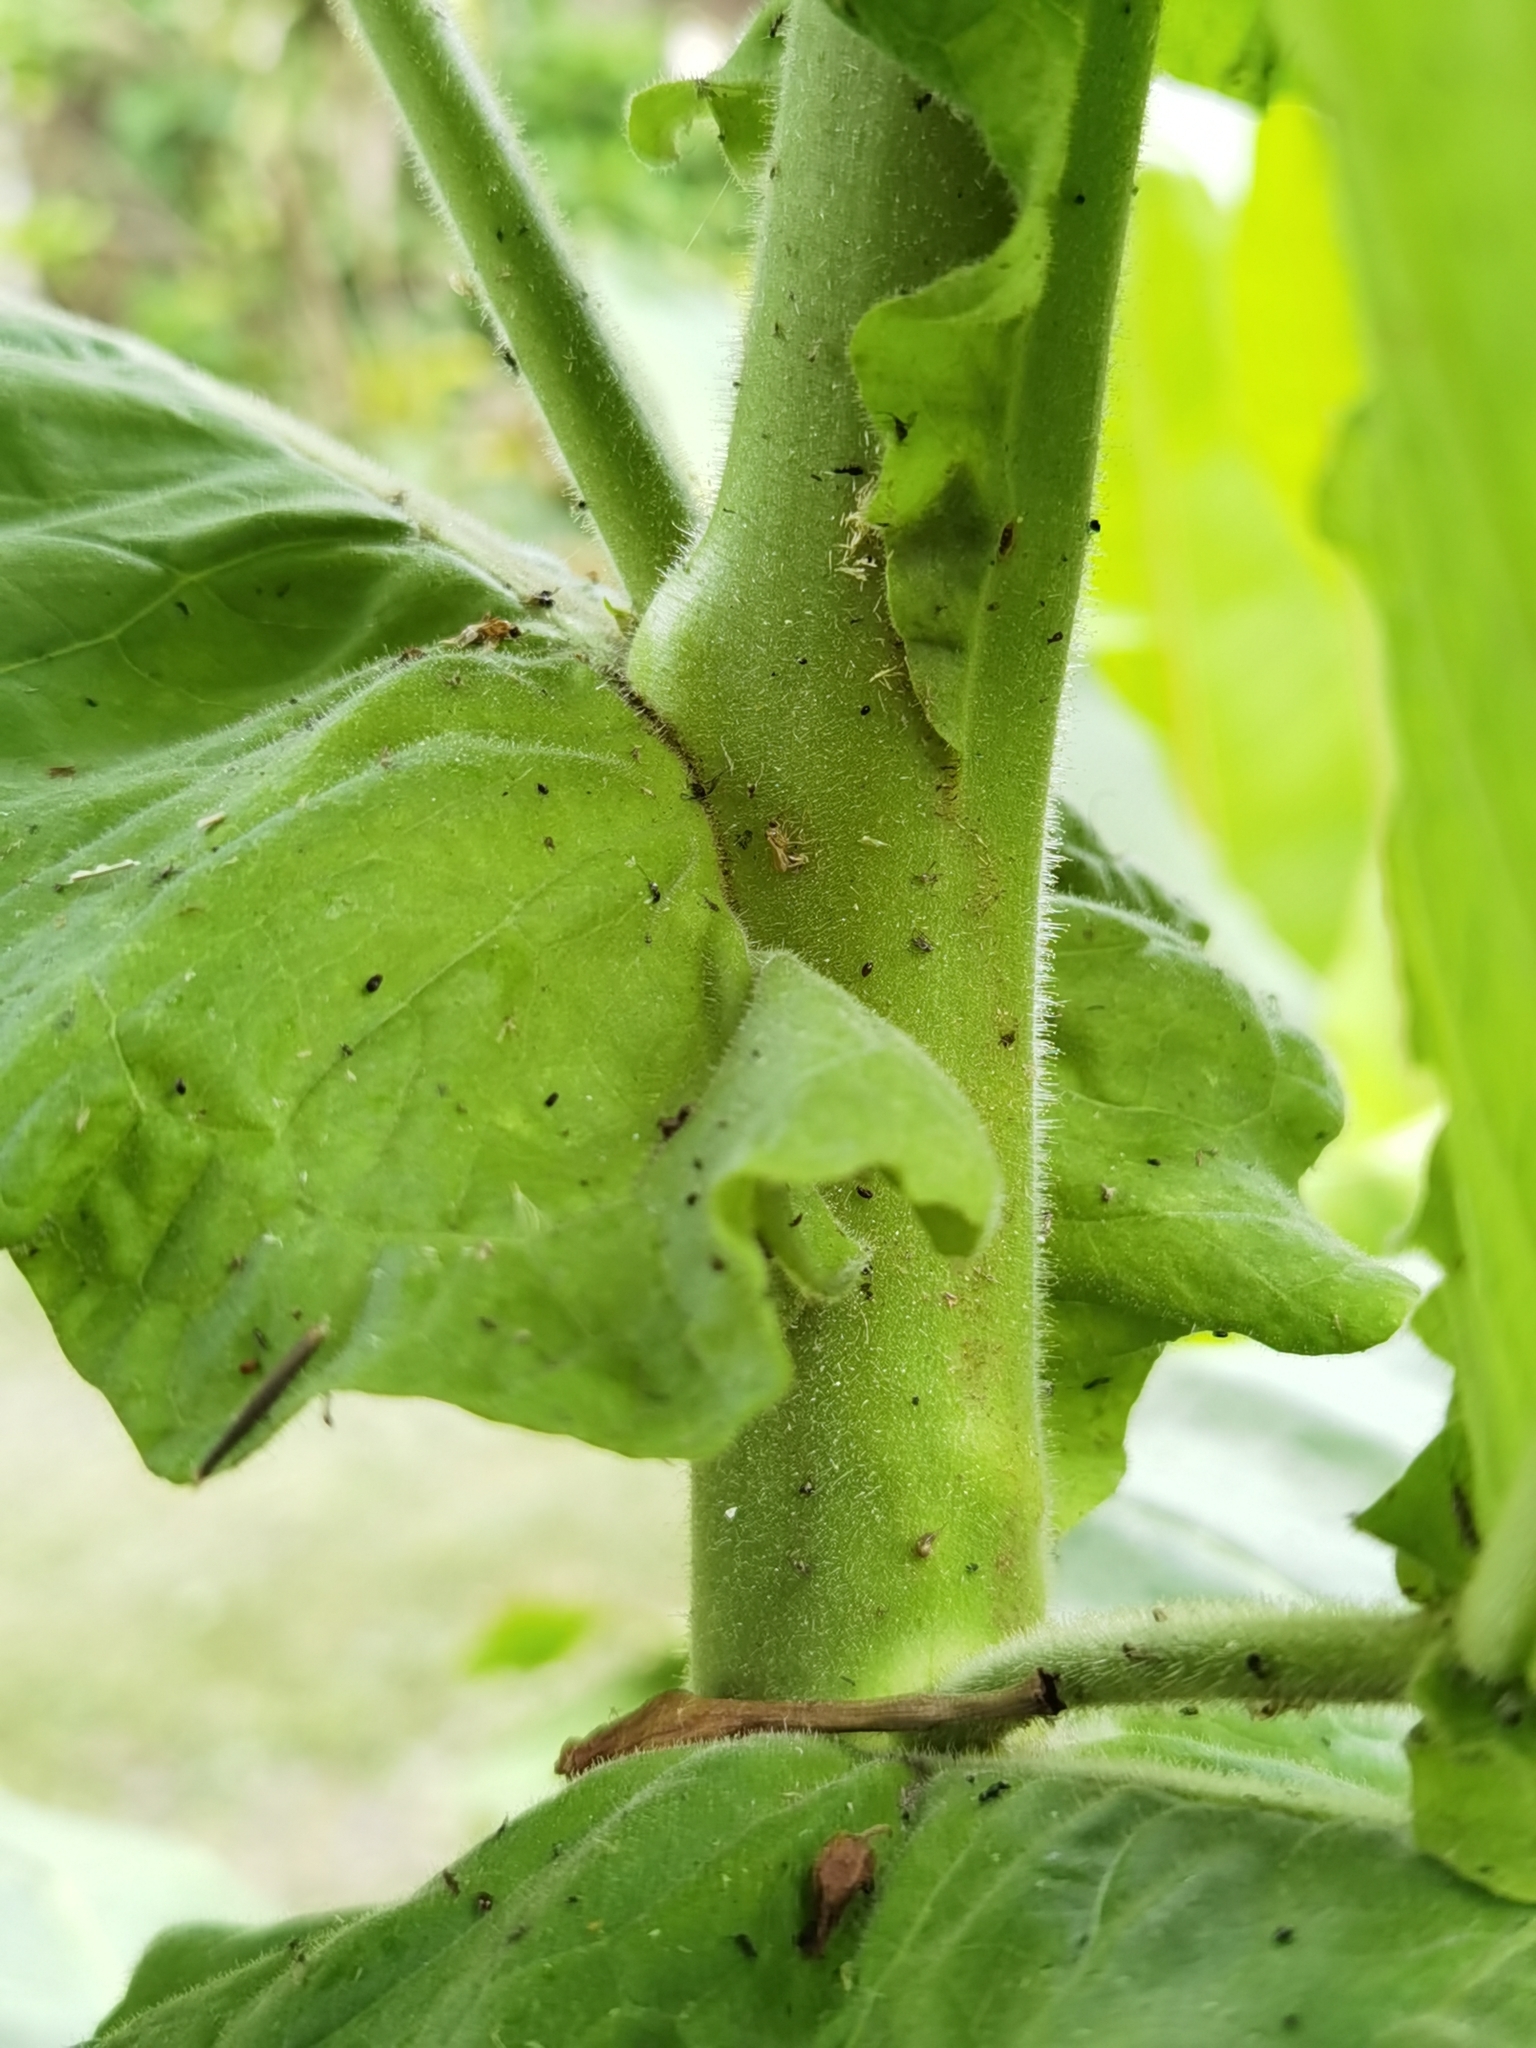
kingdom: Plantae
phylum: Tracheophyta
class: Magnoliopsida
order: Solanales
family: Solanaceae
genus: Nicotiana
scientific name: Nicotiana tabacum
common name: Tobacco
